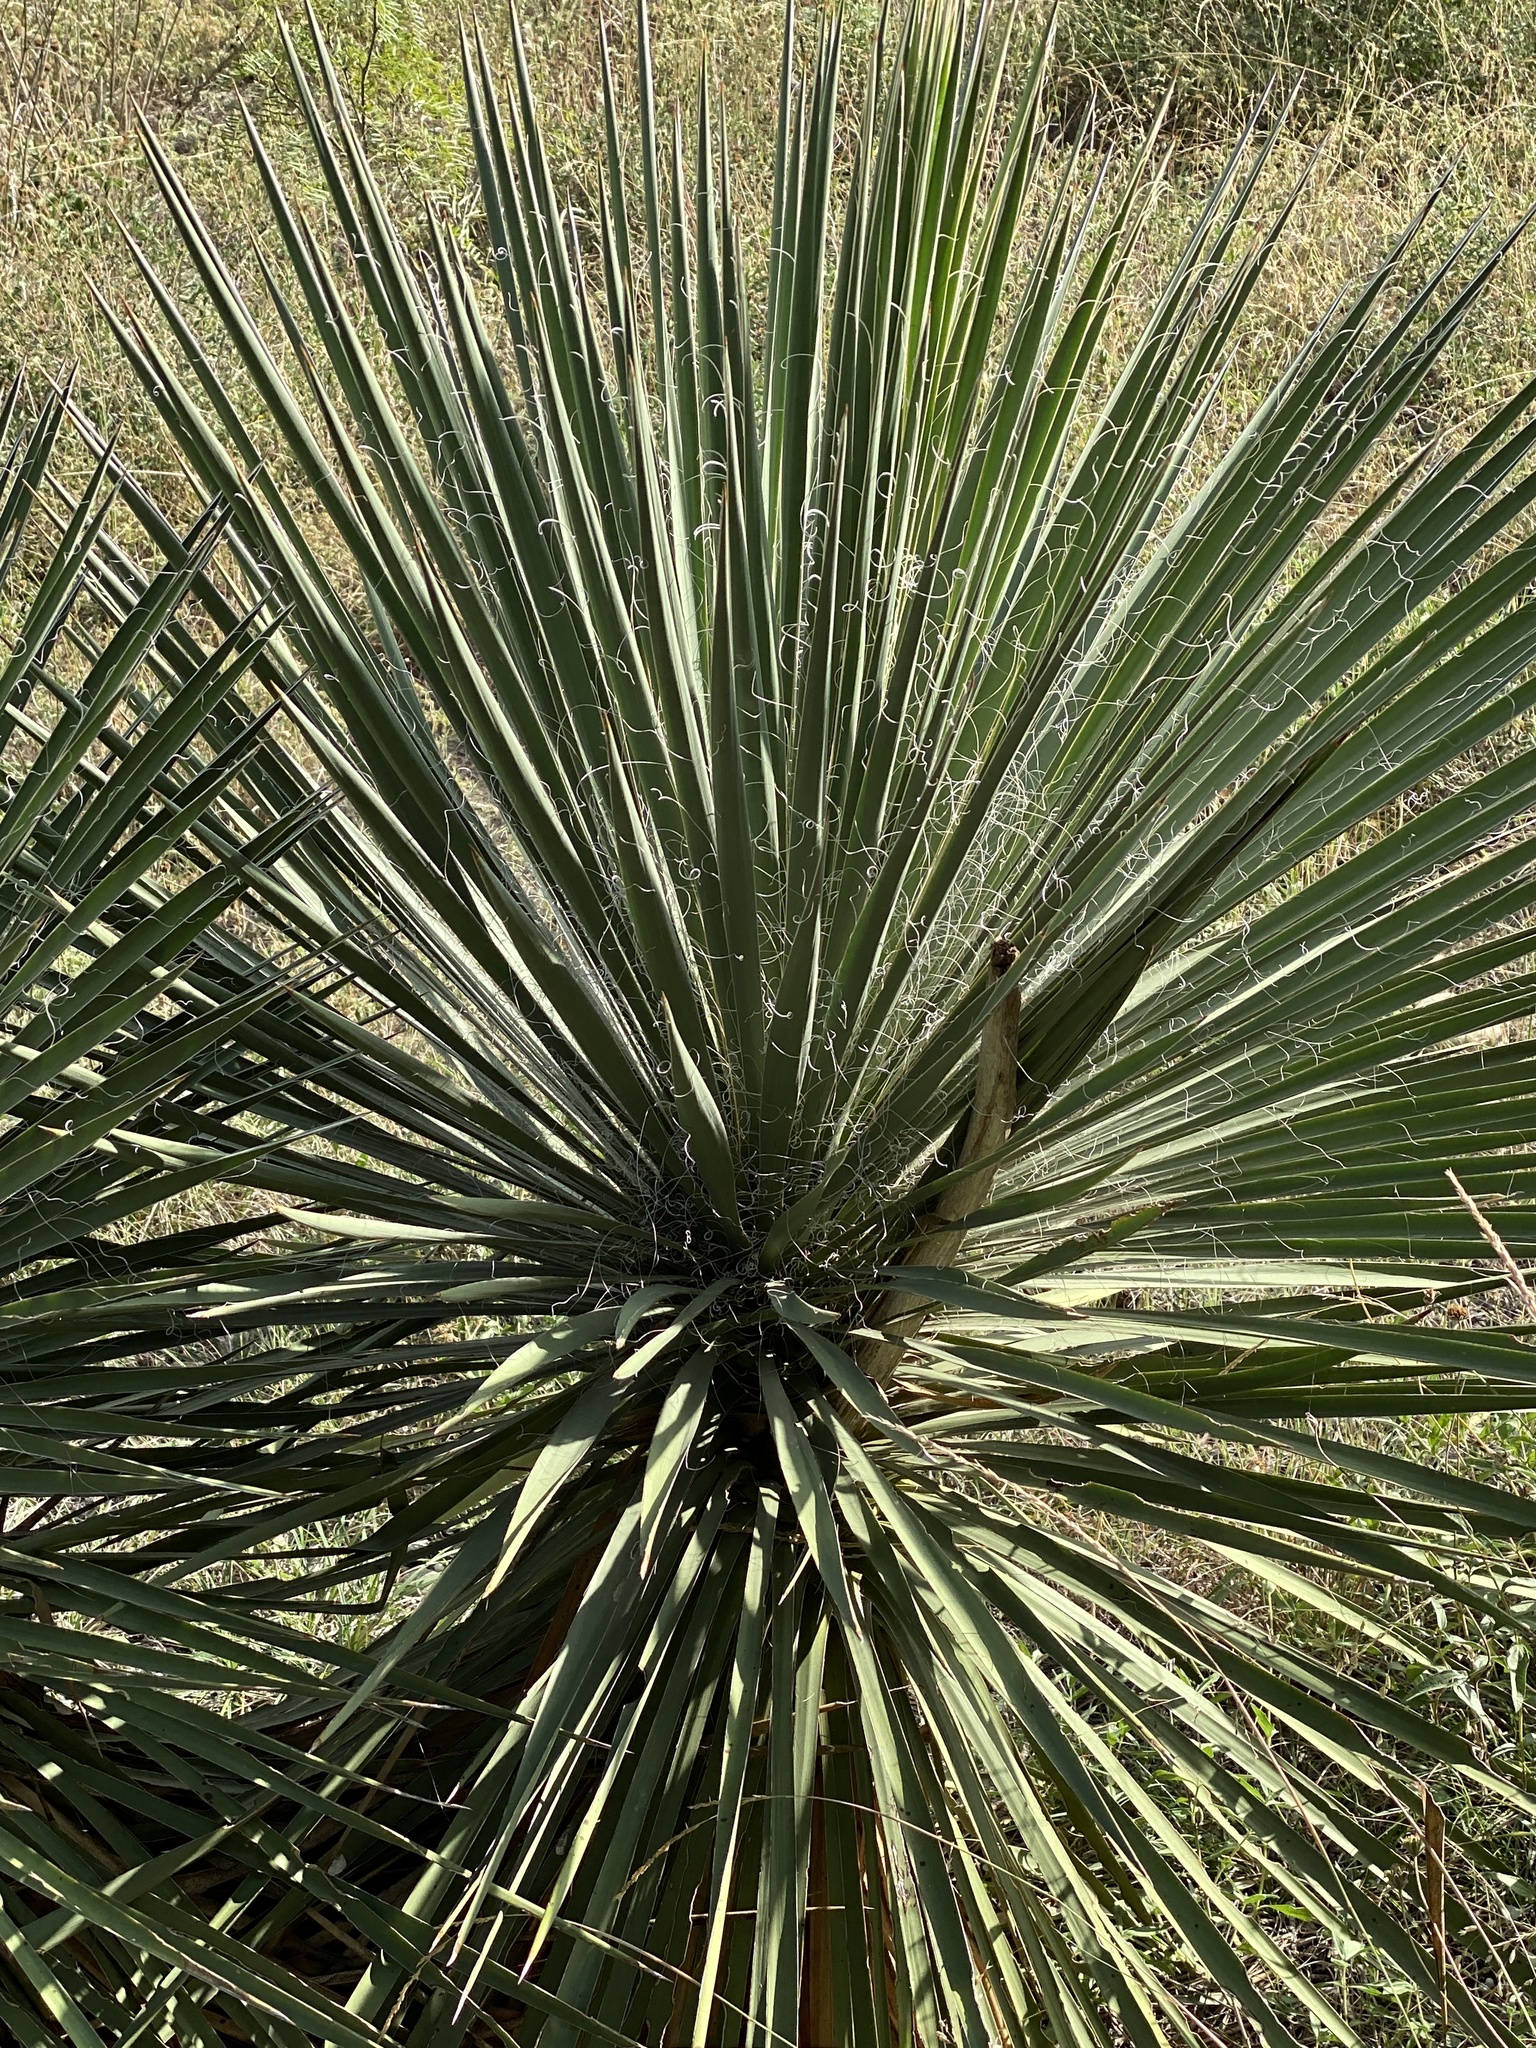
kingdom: Plantae
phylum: Tracheophyta
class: Liliopsida
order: Asparagales
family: Asparagaceae
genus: Yucca
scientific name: Yucca constricta
